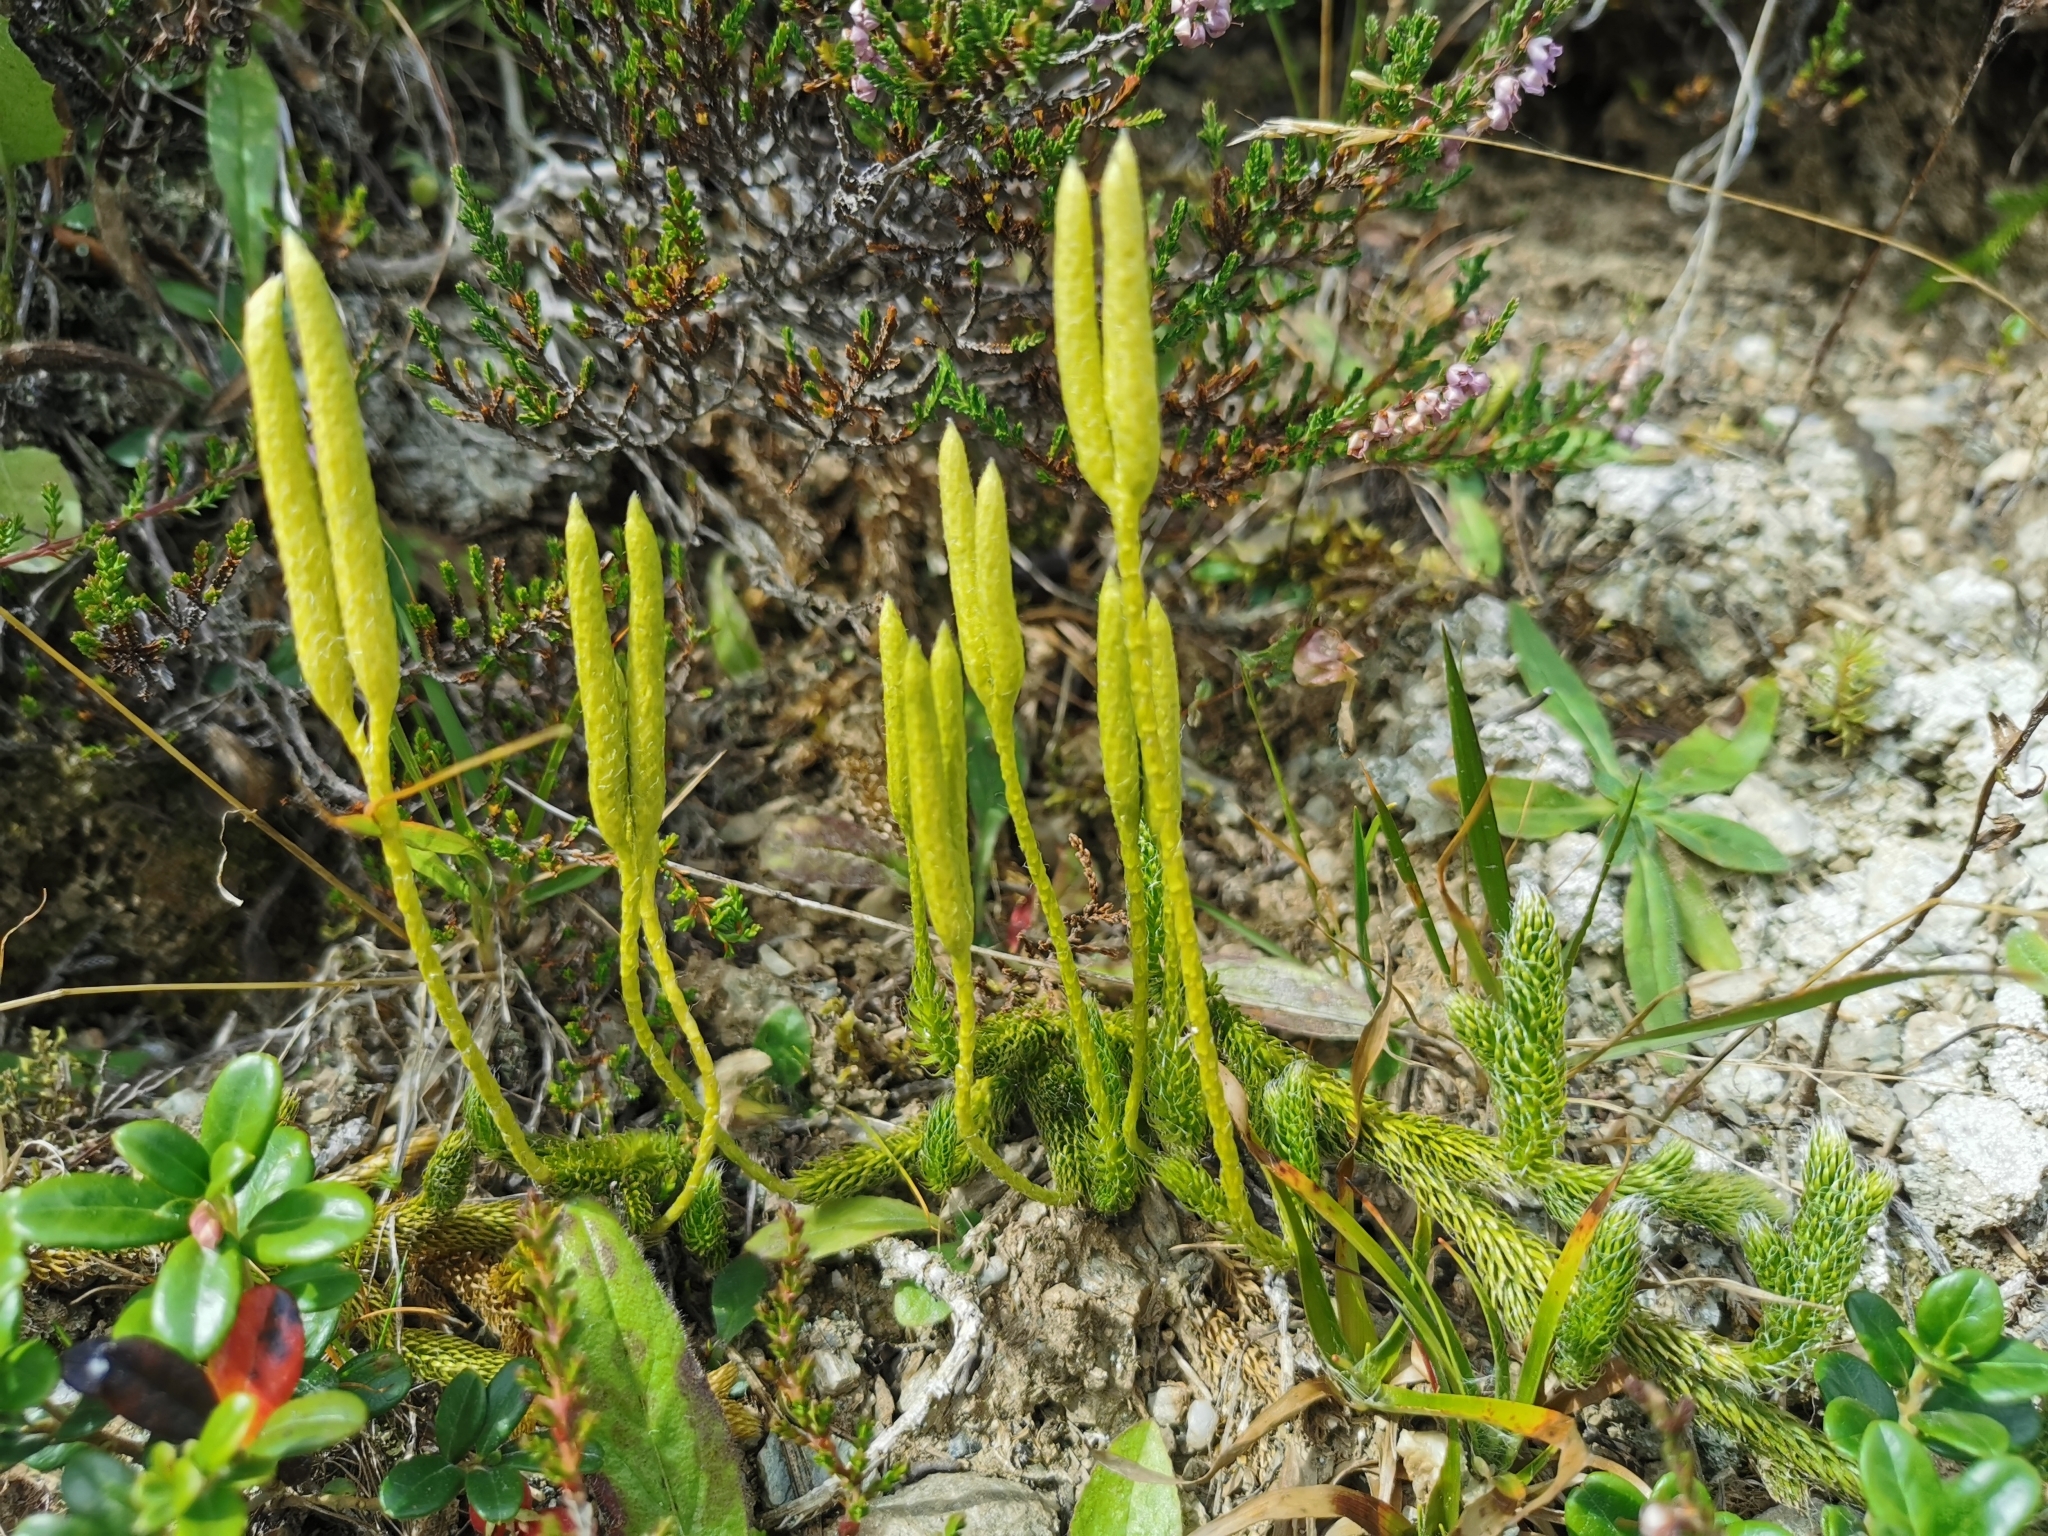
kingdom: Plantae
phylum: Tracheophyta
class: Lycopodiopsida
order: Lycopodiales
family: Lycopodiaceae
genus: Lycopodium
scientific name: Lycopodium clavatum
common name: Stag's-horn clubmoss
